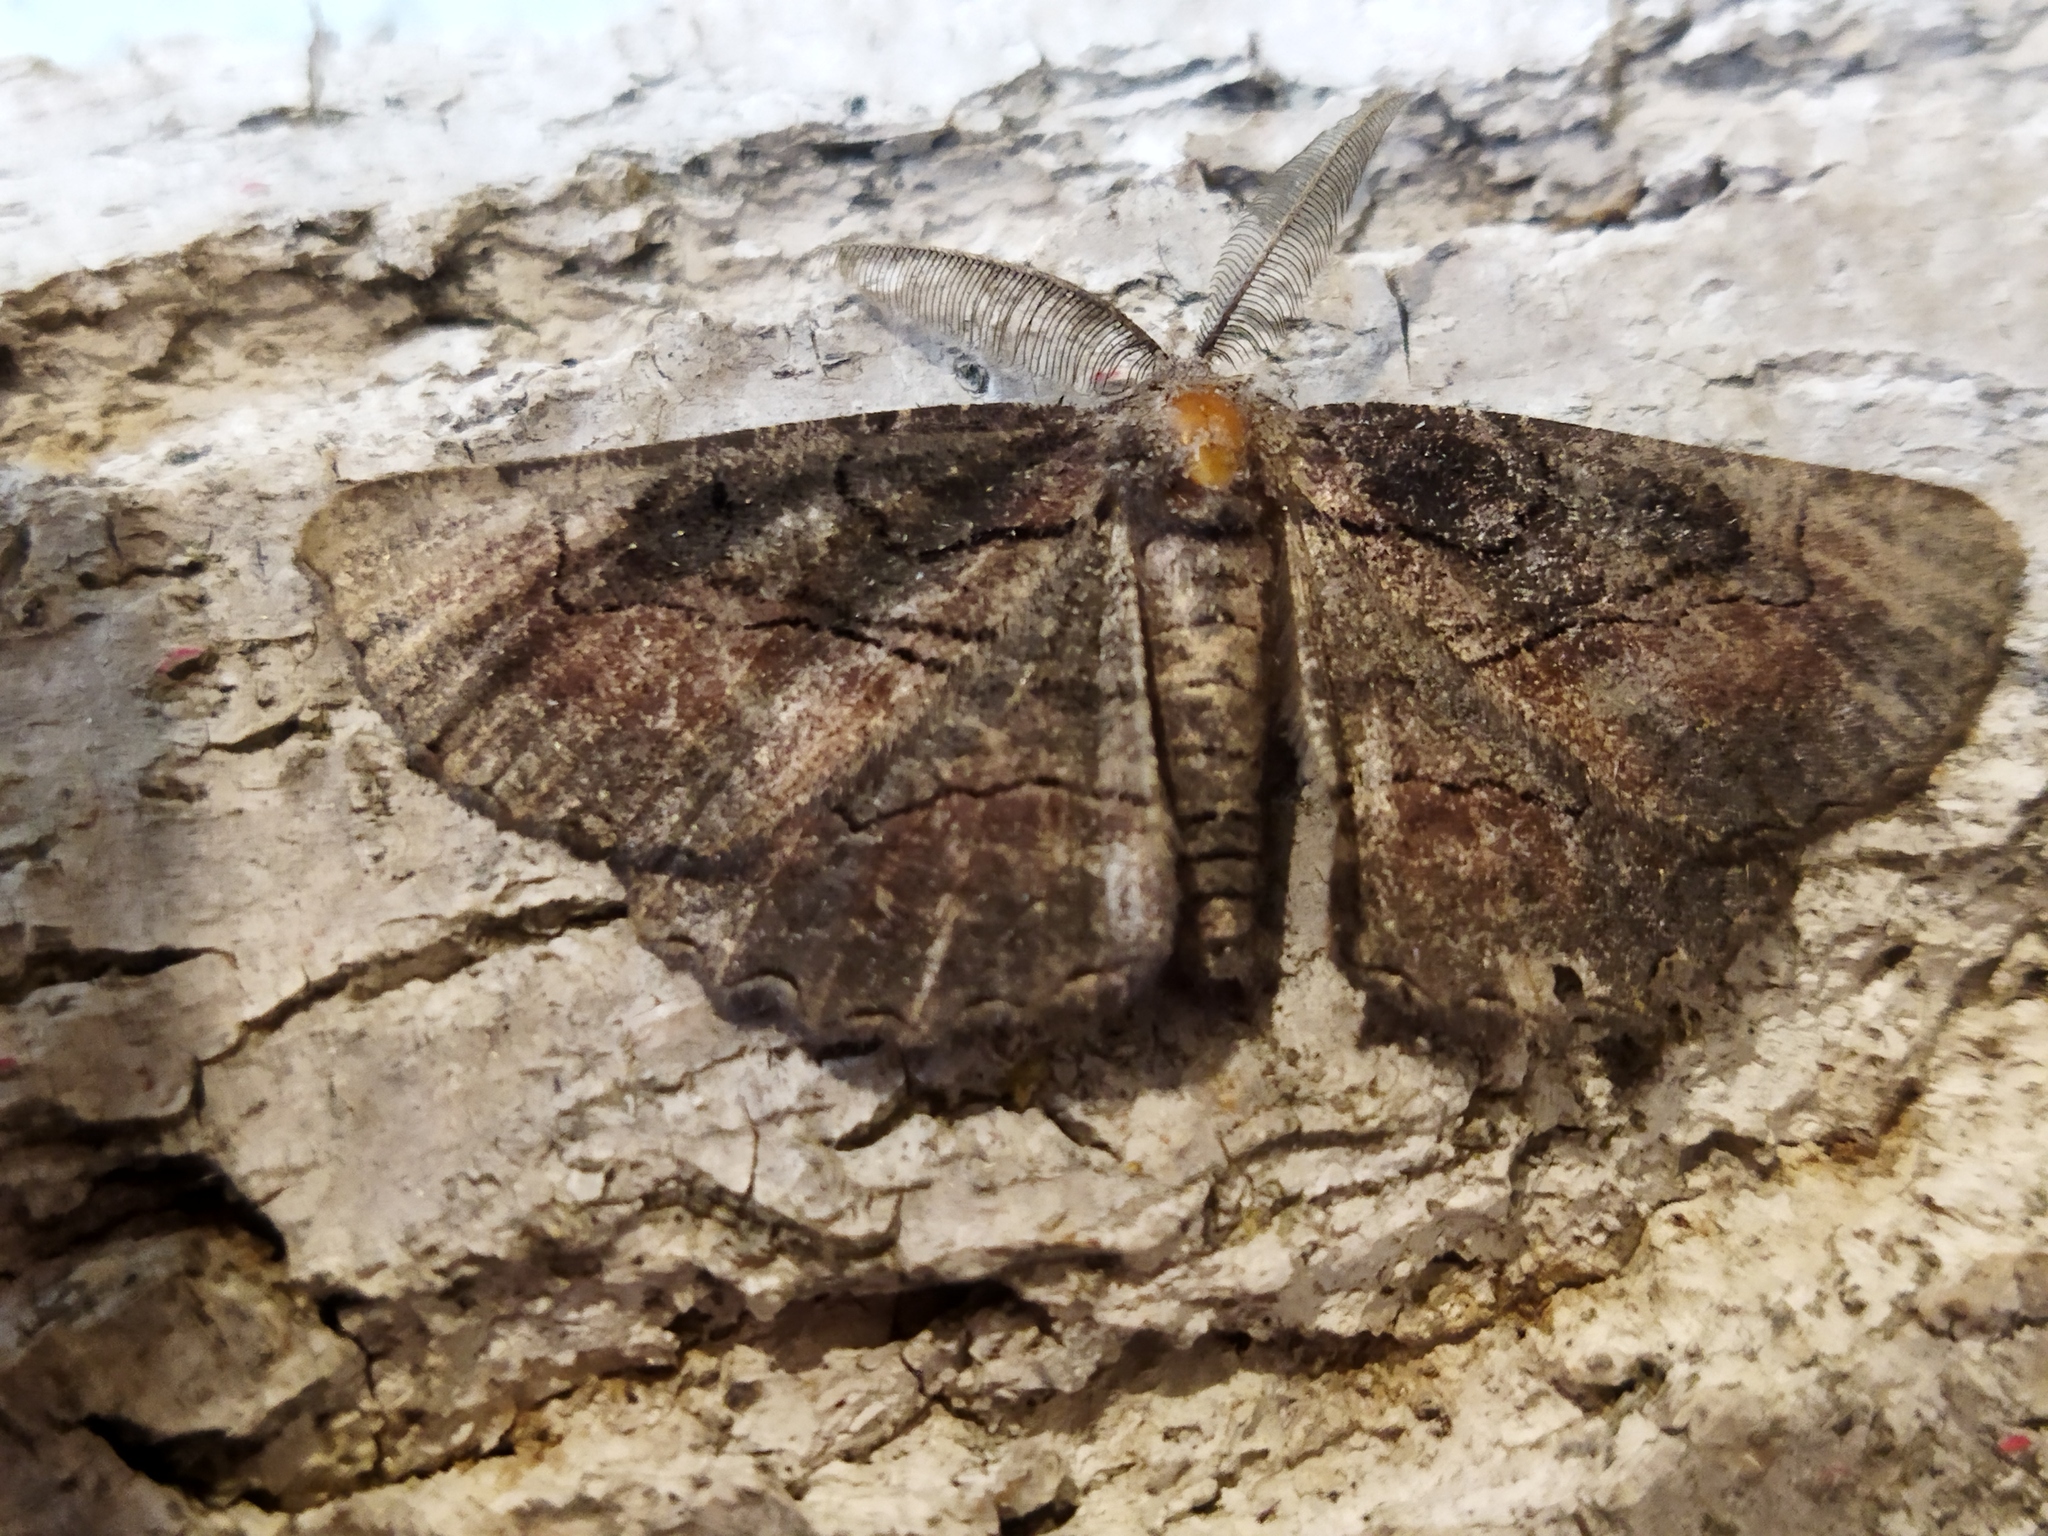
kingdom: Animalia
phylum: Arthropoda
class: Insecta
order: Lepidoptera
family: Geometridae
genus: Nychiodes
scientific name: Nychiodes waltheri
